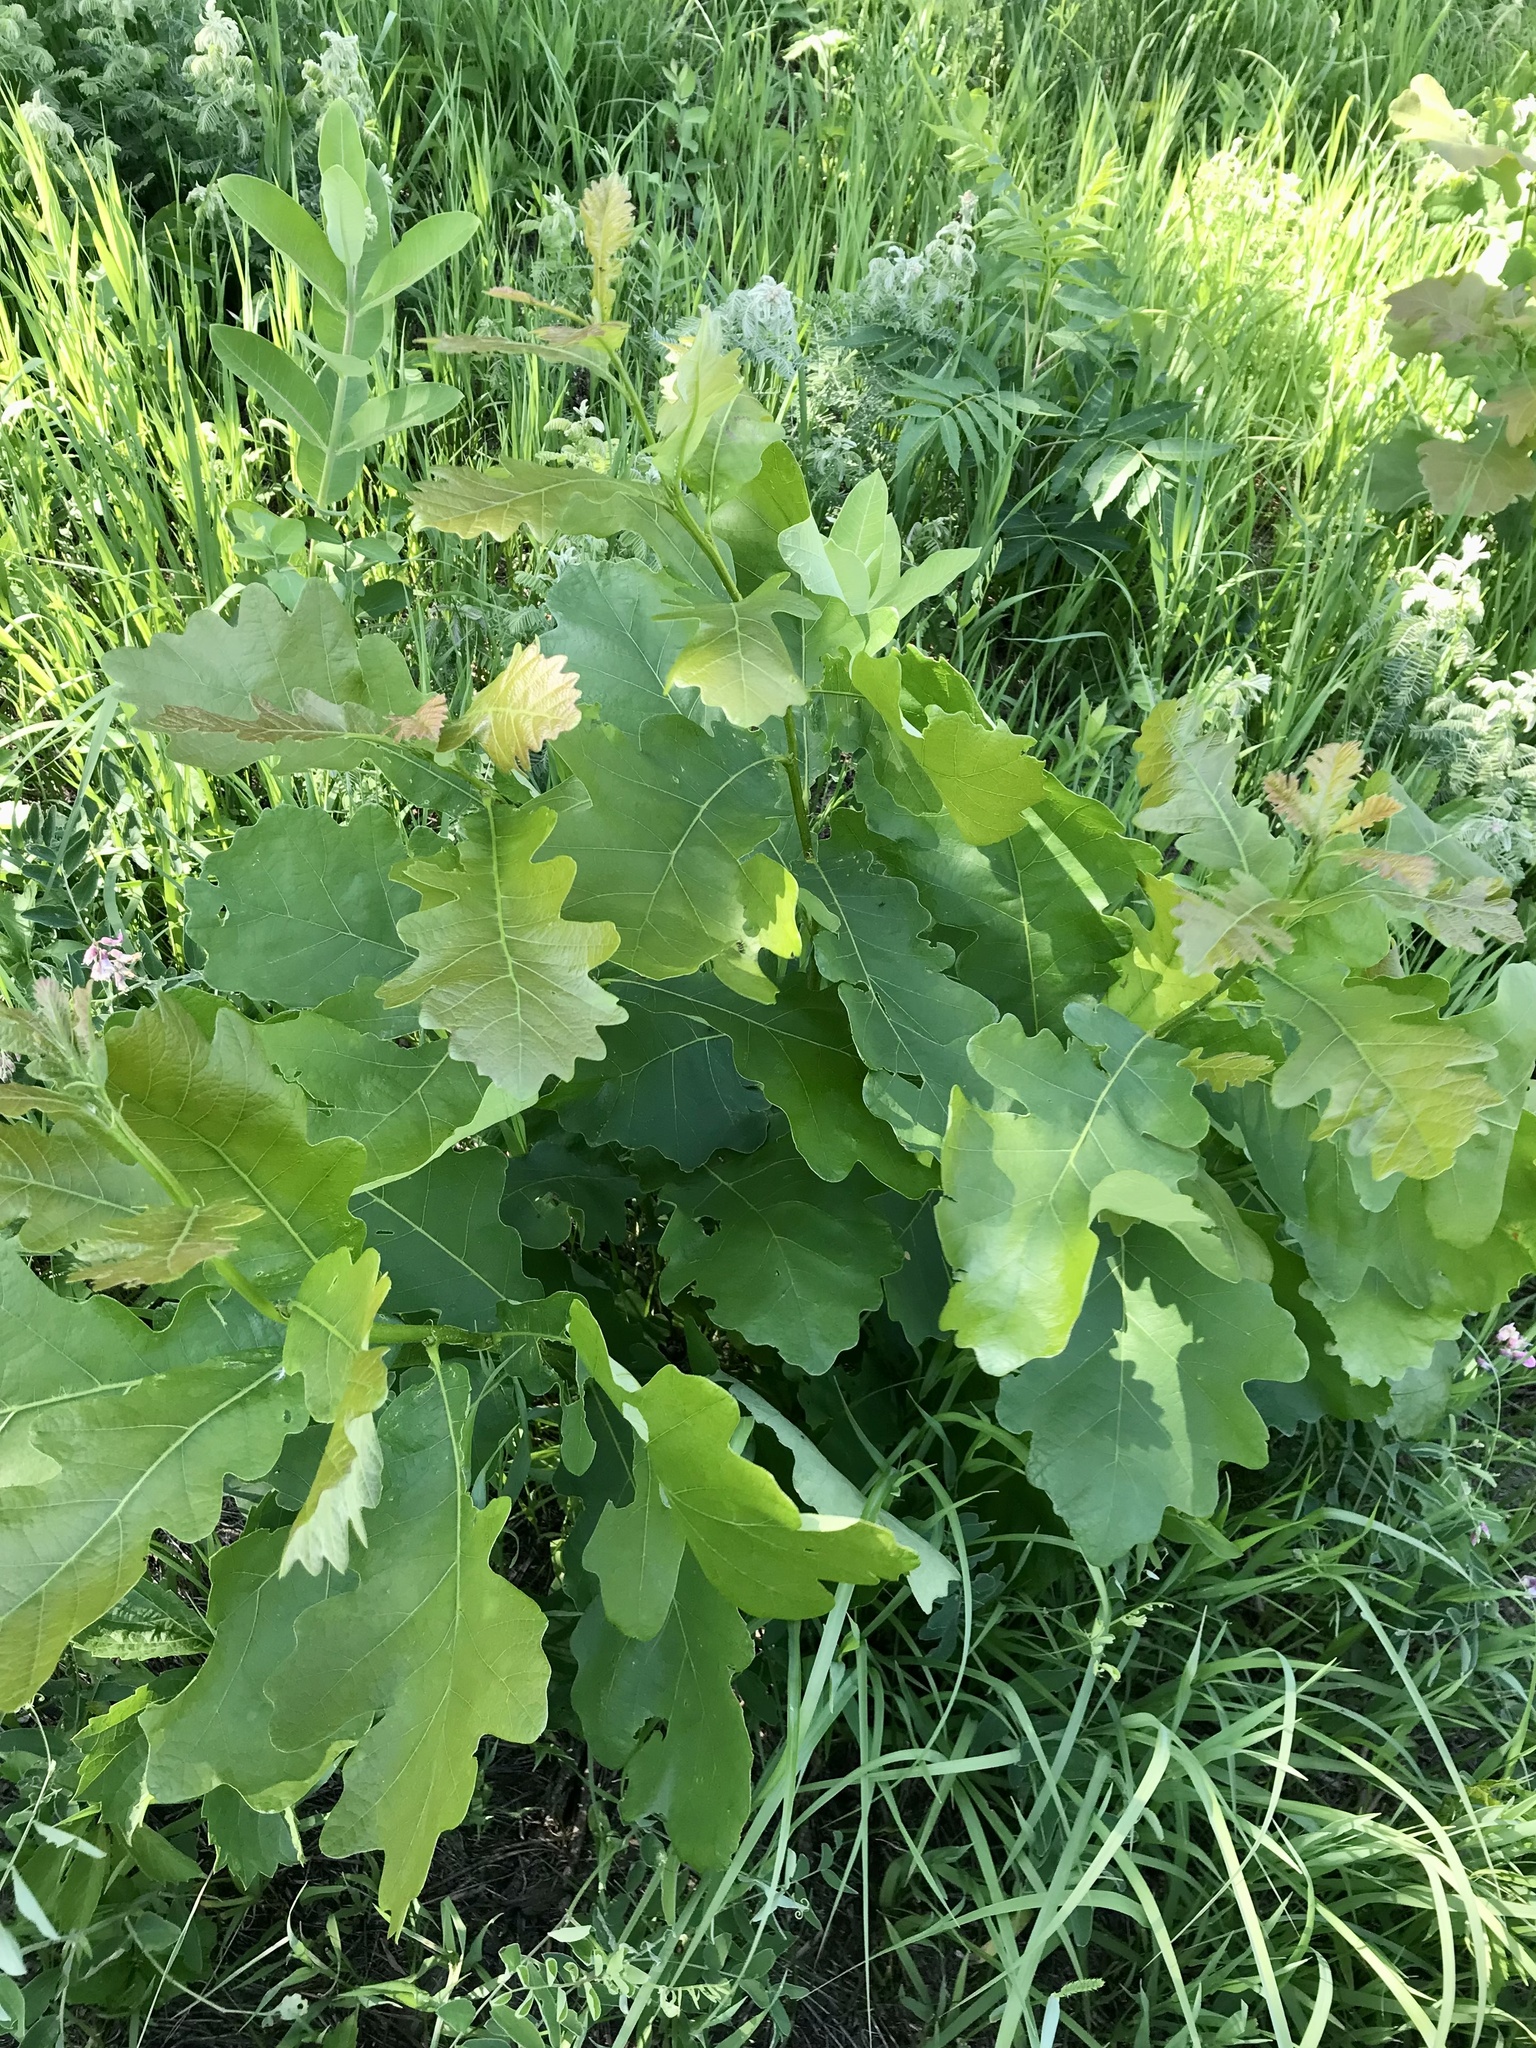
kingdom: Plantae
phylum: Tracheophyta
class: Magnoliopsida
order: Fagales
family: Fagaceae
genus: Quercus
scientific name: Quercus macrocarpa
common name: Bur oak
